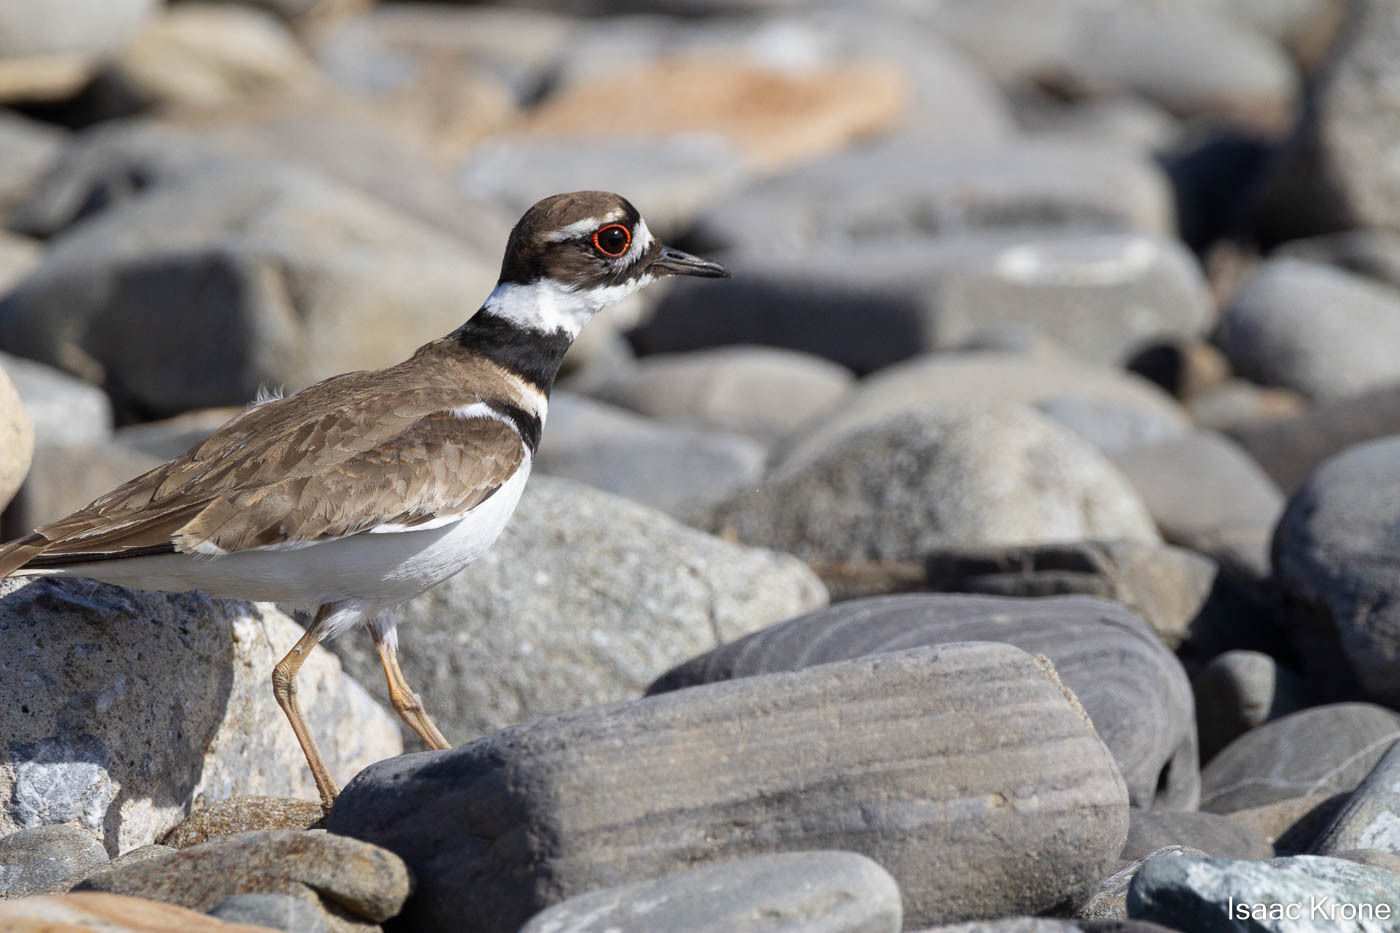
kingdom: Animalia
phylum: Chordata
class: Aves
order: Charadriiformes
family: Charadriidae
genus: Charadrius
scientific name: Charadrius vociferus
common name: Killdeer
